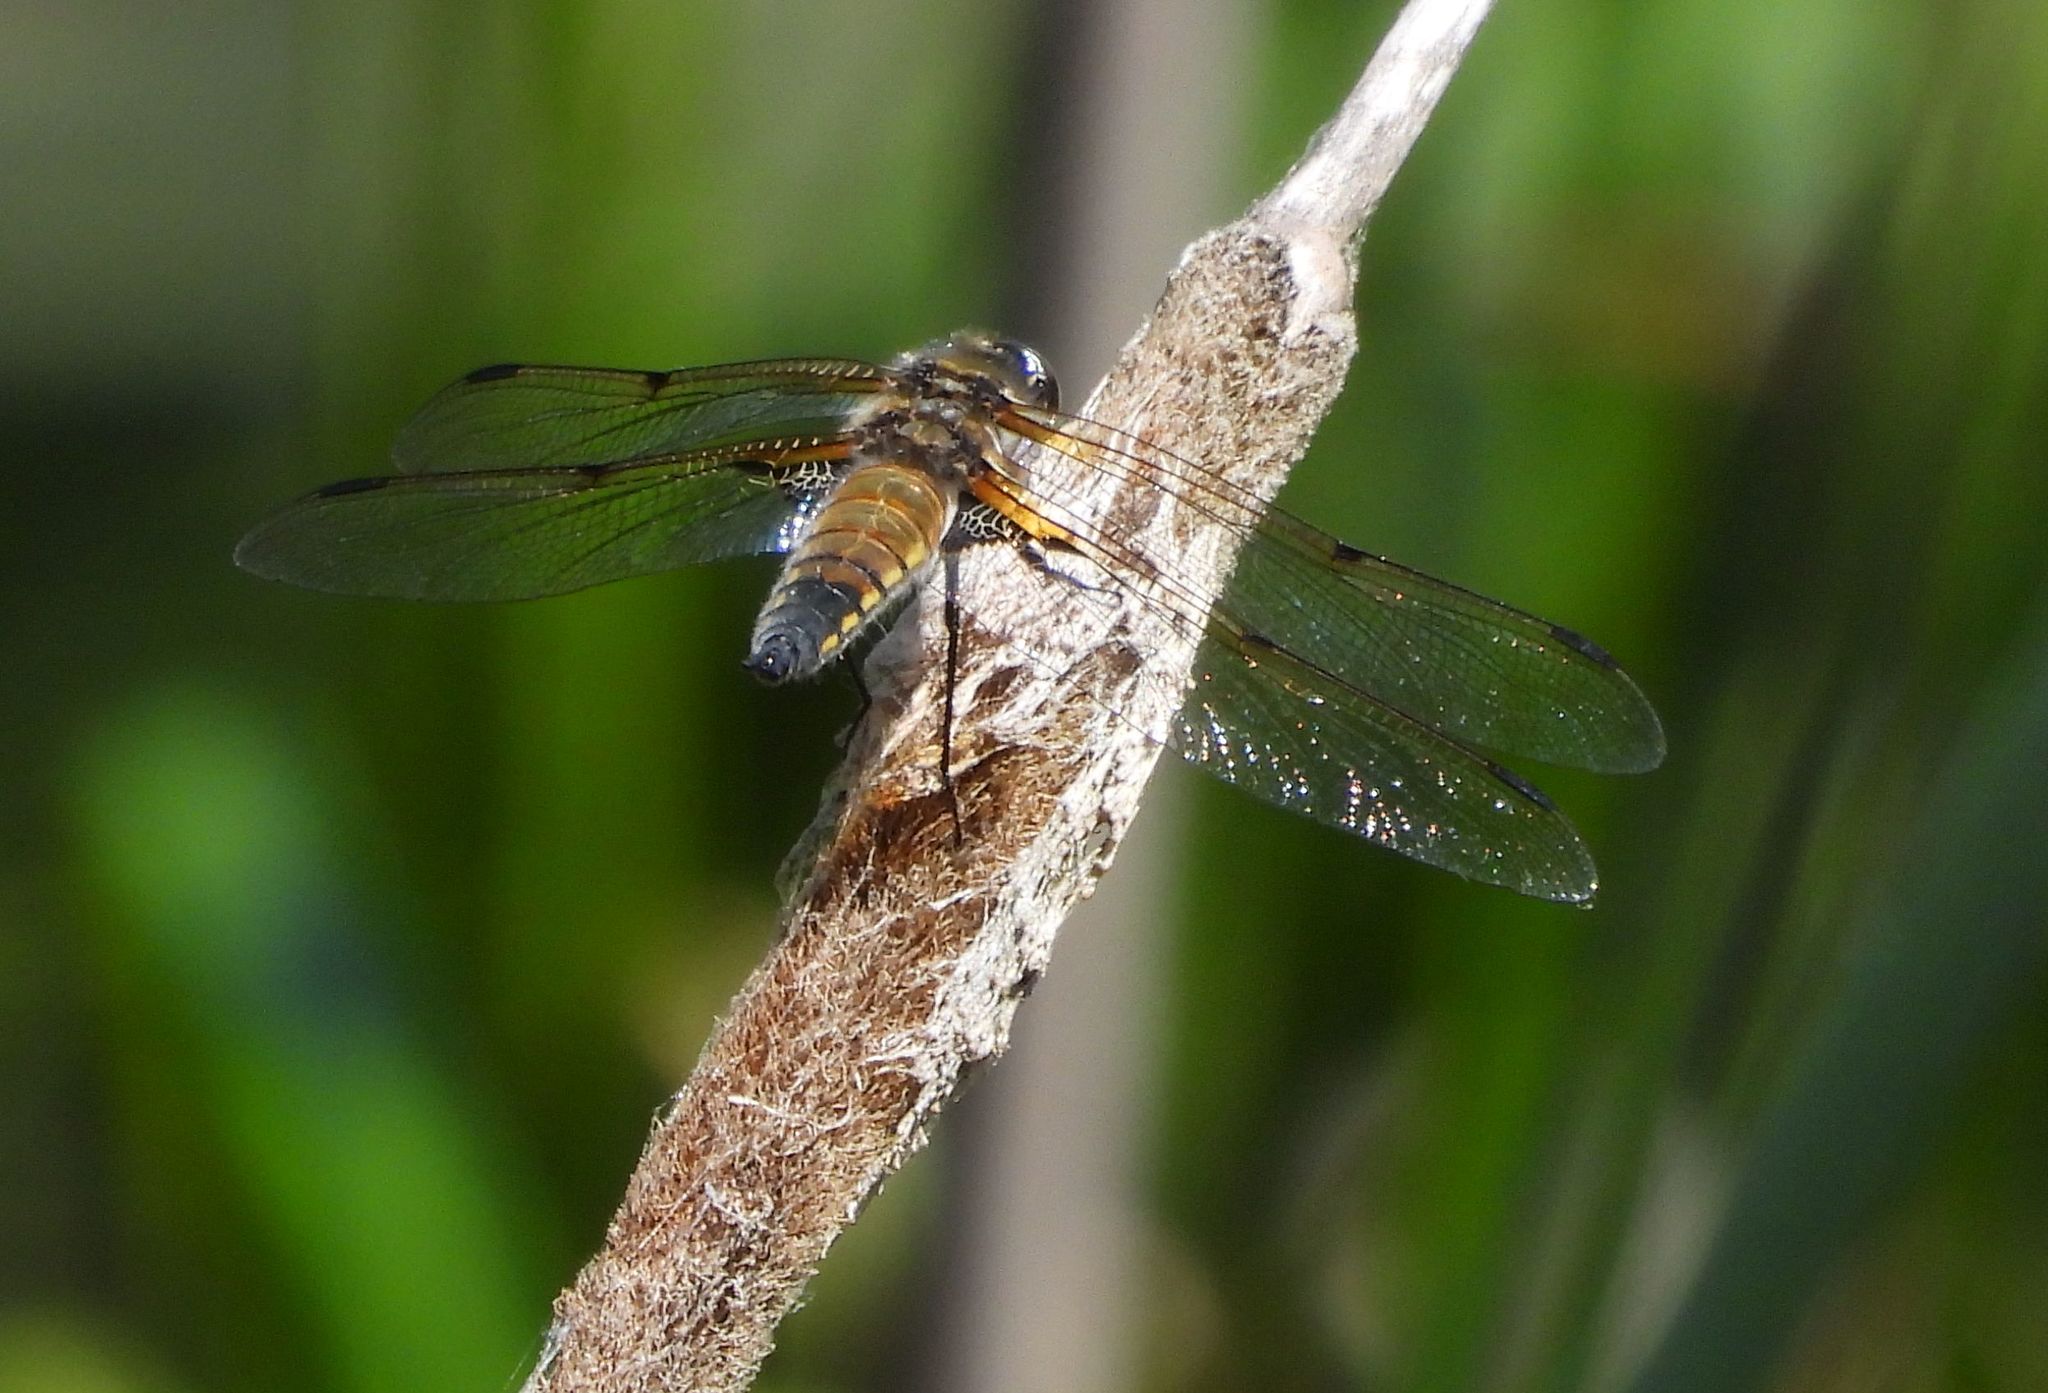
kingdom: Animalia
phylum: Arthropoda
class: Insecta
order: Odonata
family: Libellulidae
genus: Libellula
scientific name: Libellula quadrimaculata
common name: Four-spotted chaser
